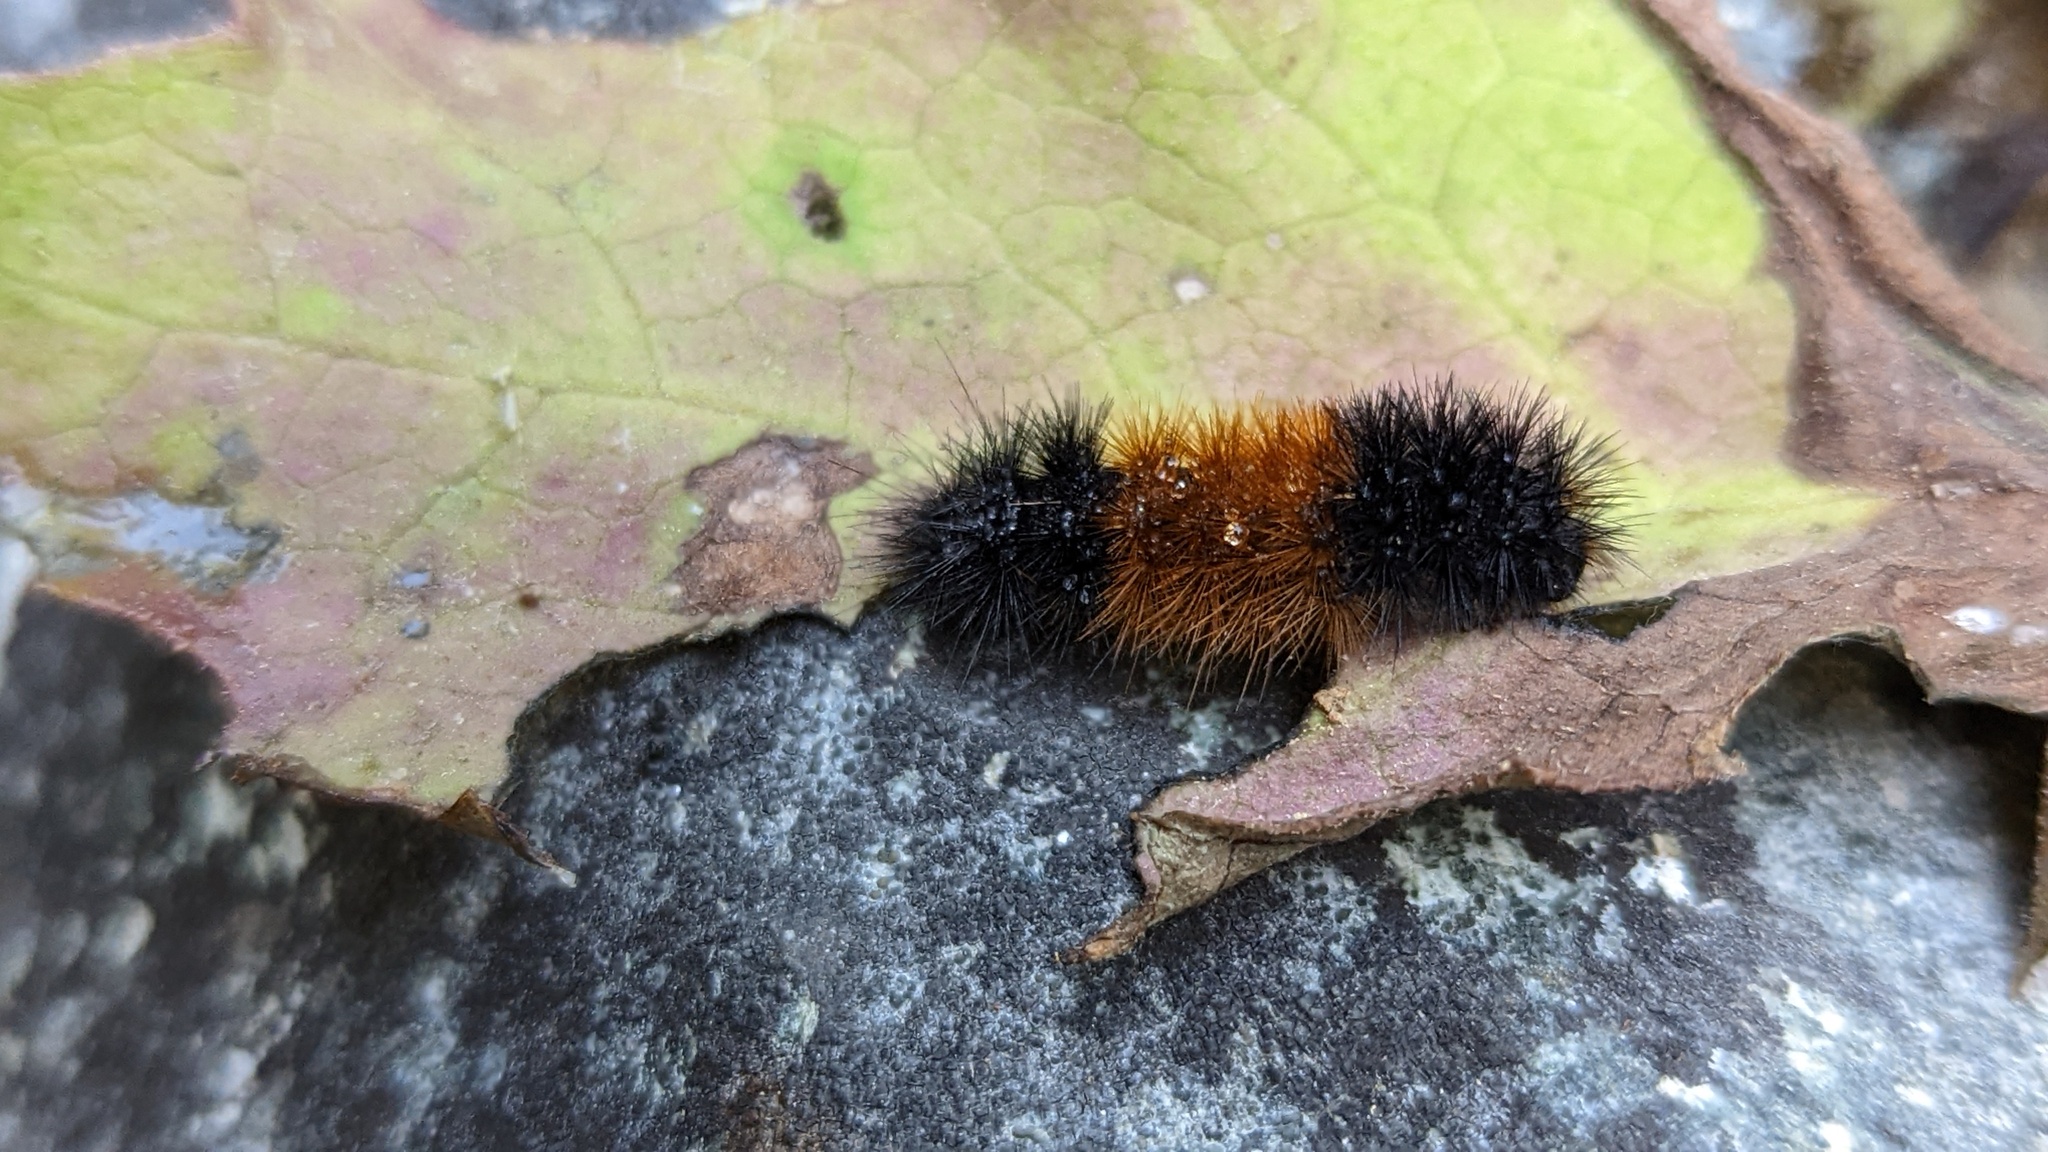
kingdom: Animalia
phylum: Arthropoda
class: Insecta
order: Lepidoptera
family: Erebidae
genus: Pyrrharctia
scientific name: Pyrrharctia isabella
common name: Isabella tiger moth
